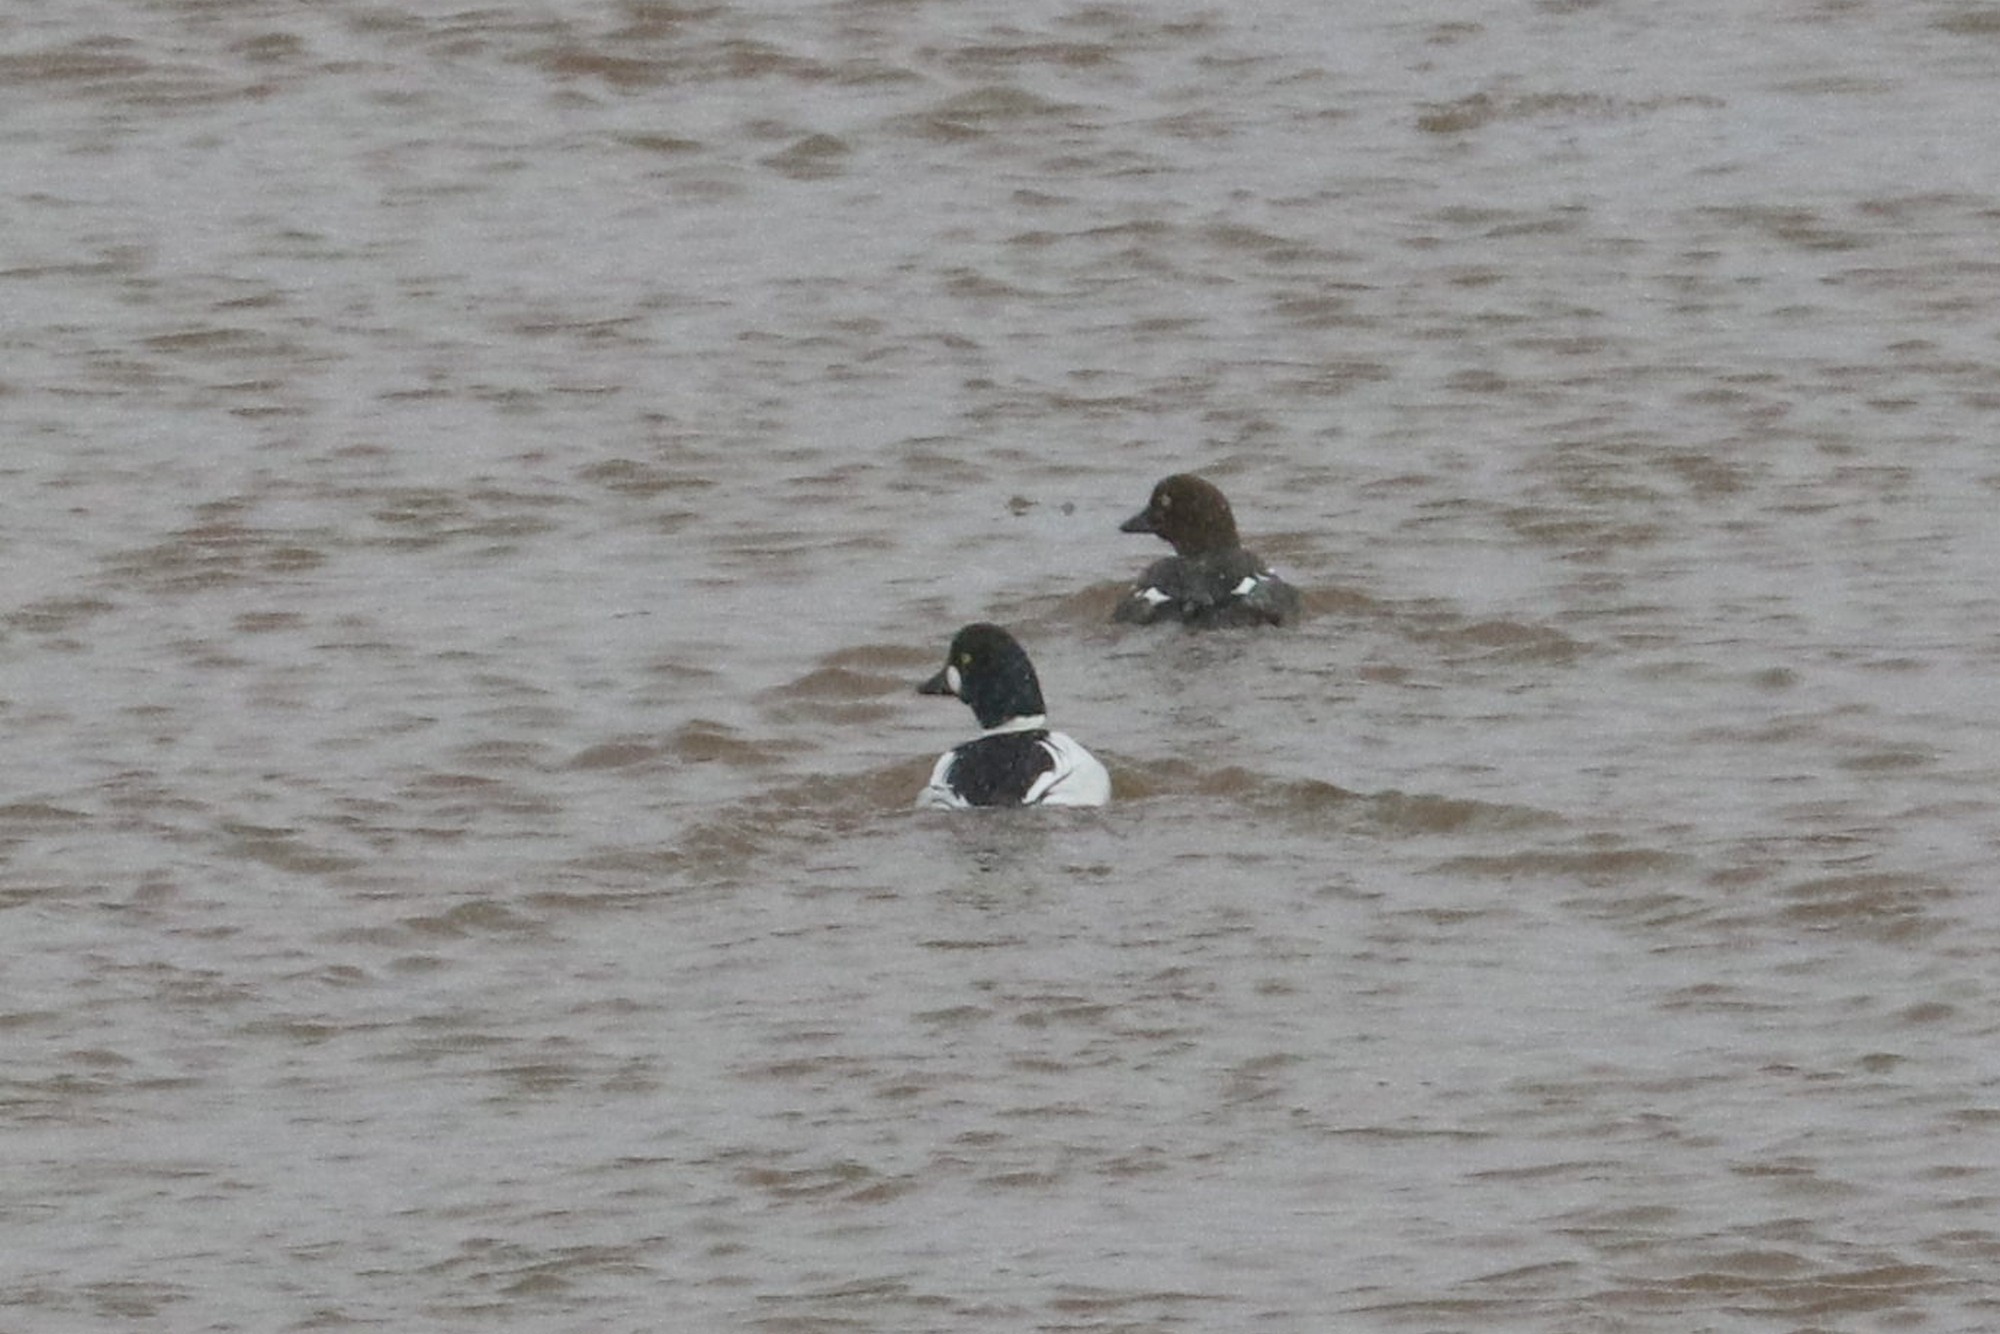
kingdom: Animalia
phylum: Chordata
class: Aves
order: Anseriformes
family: Anatidae
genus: Bucephala
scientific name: Bucephala clangula
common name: Common goldeneye
